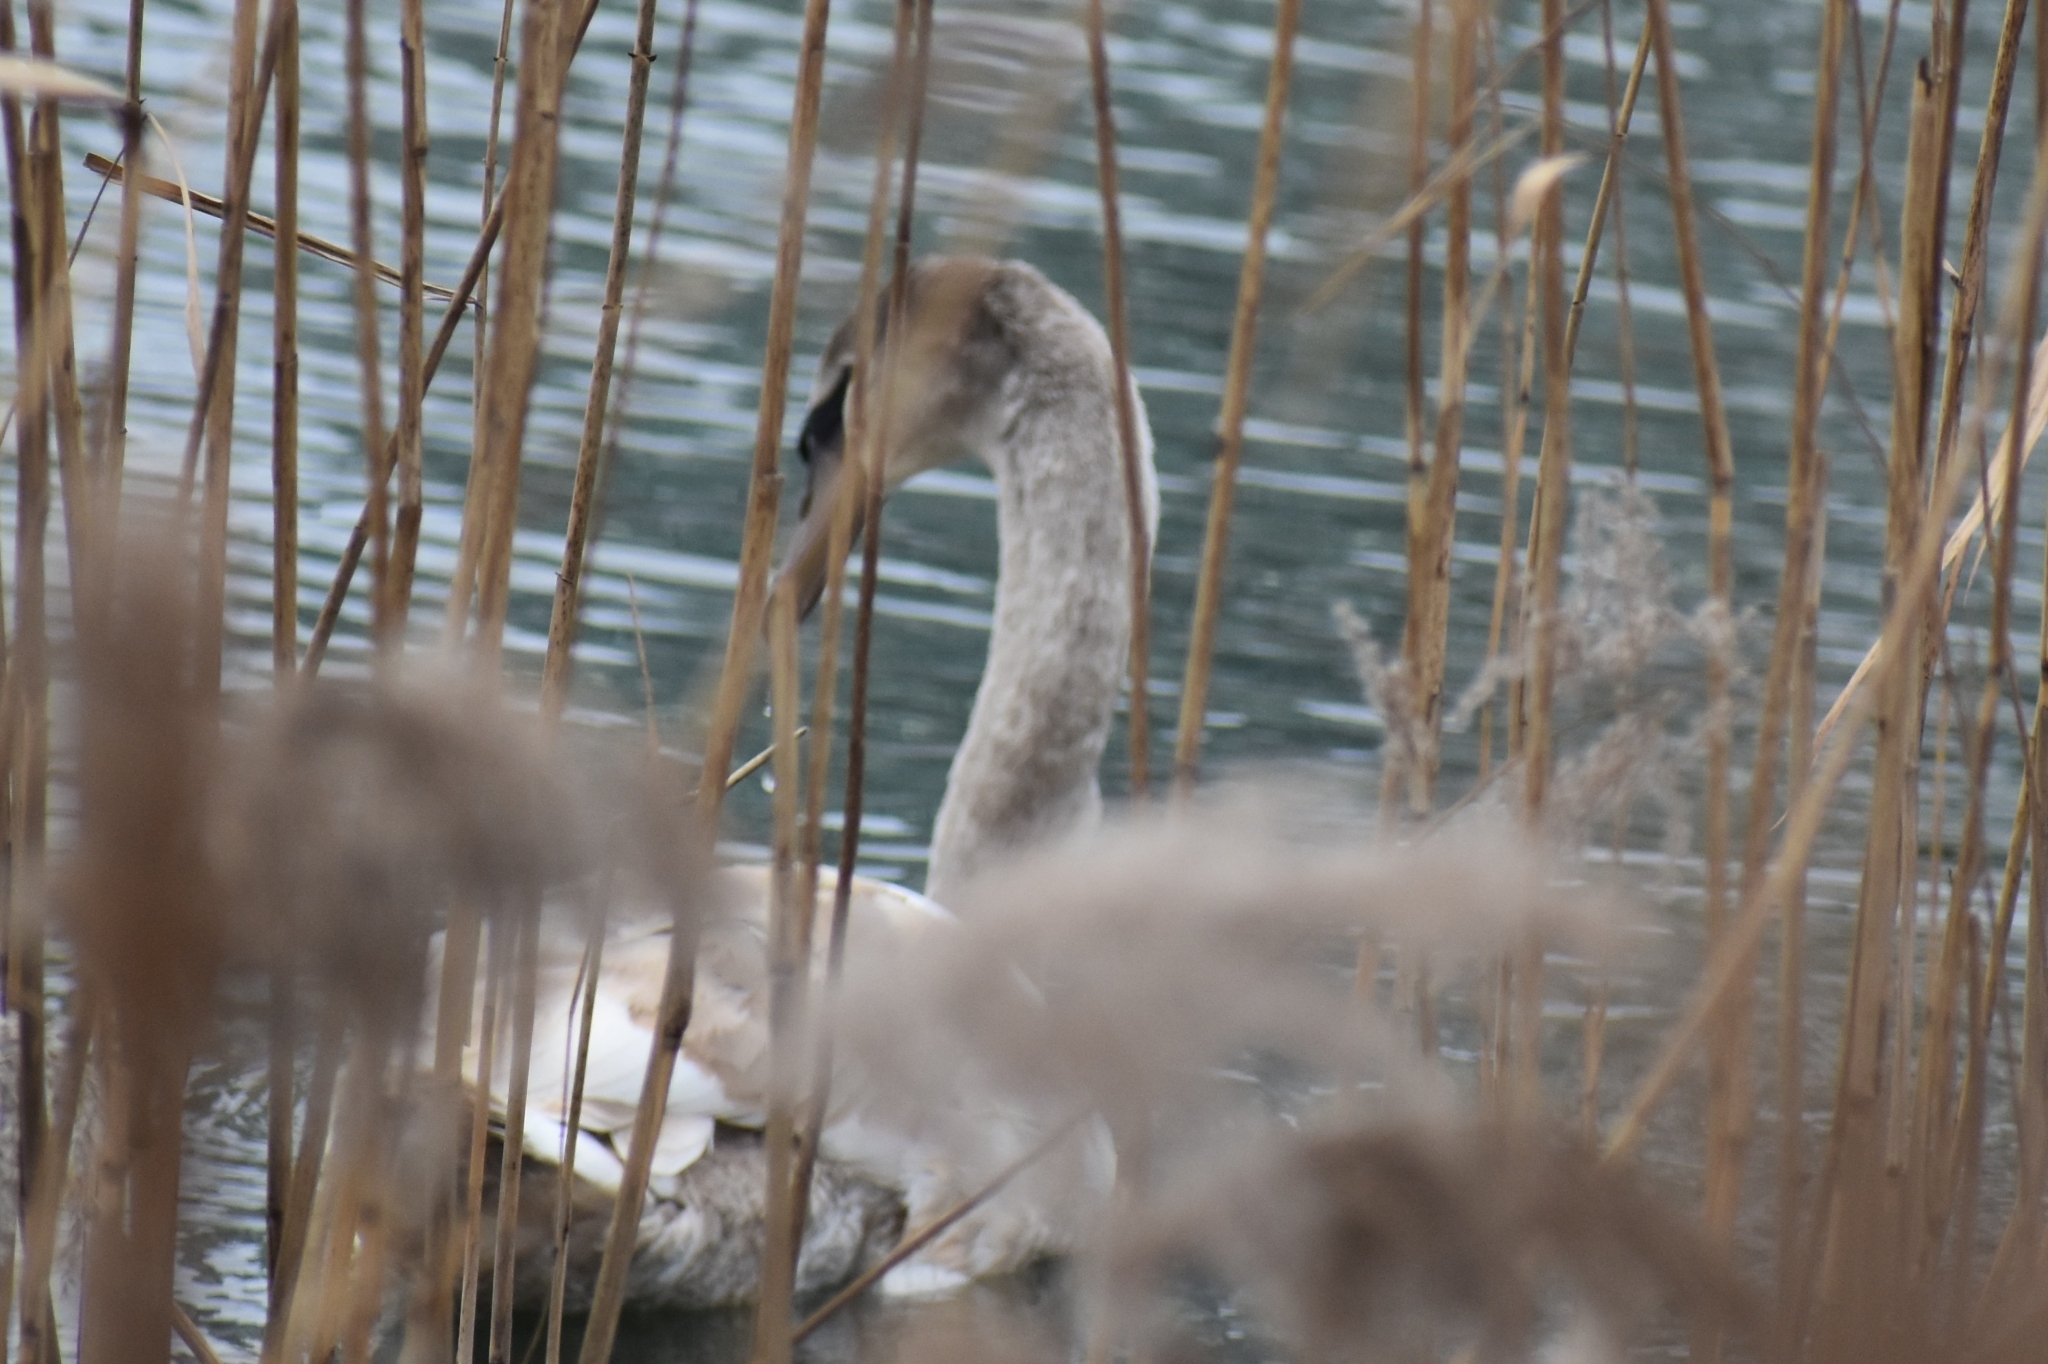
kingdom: Animalia
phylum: Chordata
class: Aves
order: Anseriformes
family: Anatidae
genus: Cygnus
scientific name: Cygnus olor
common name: Mute swan
